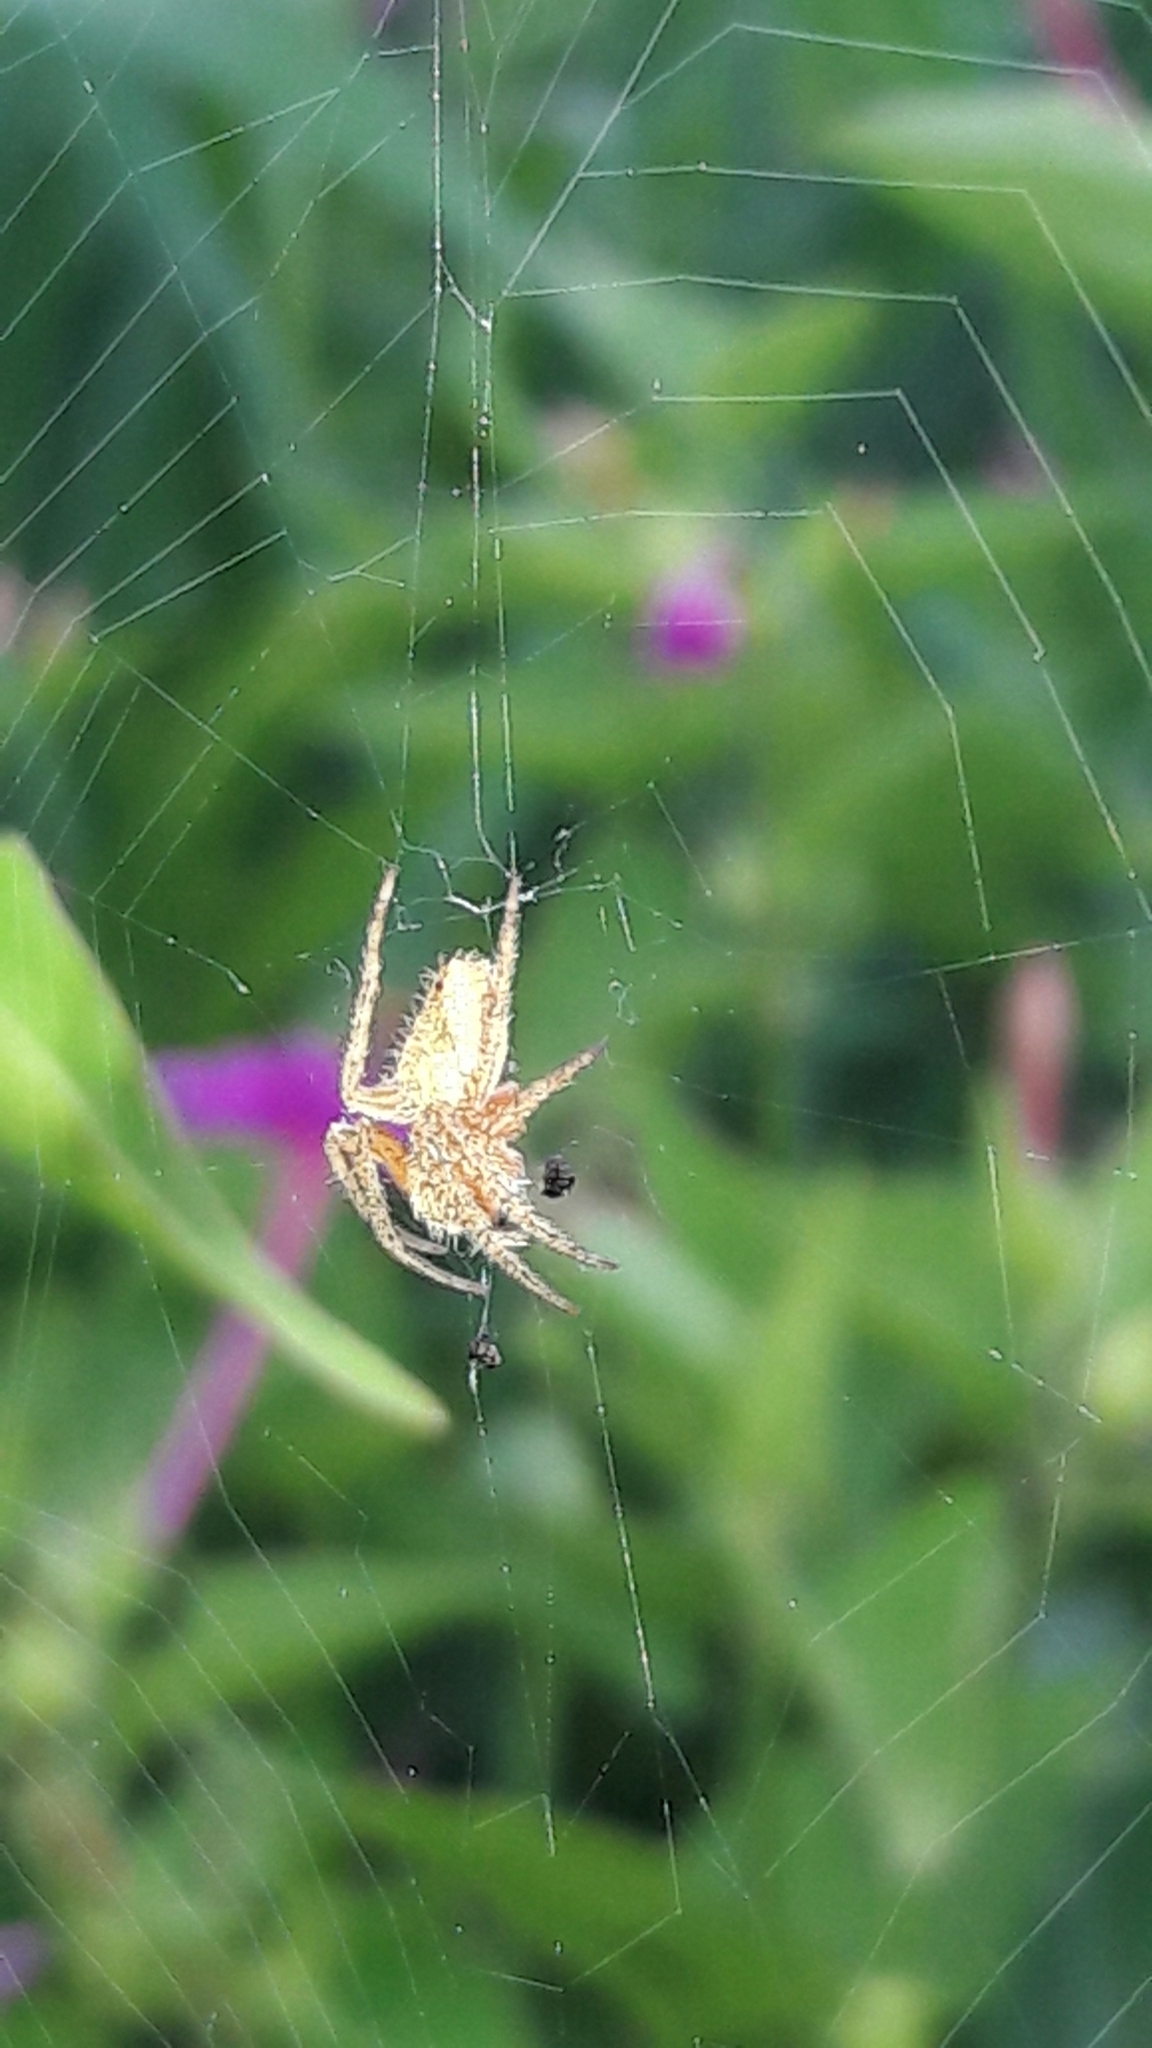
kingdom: Animalia
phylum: Arthropoda
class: Arachnida
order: Araneae
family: Araneidae
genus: Eriophora
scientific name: Eriophora edax
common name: Orb weavers
